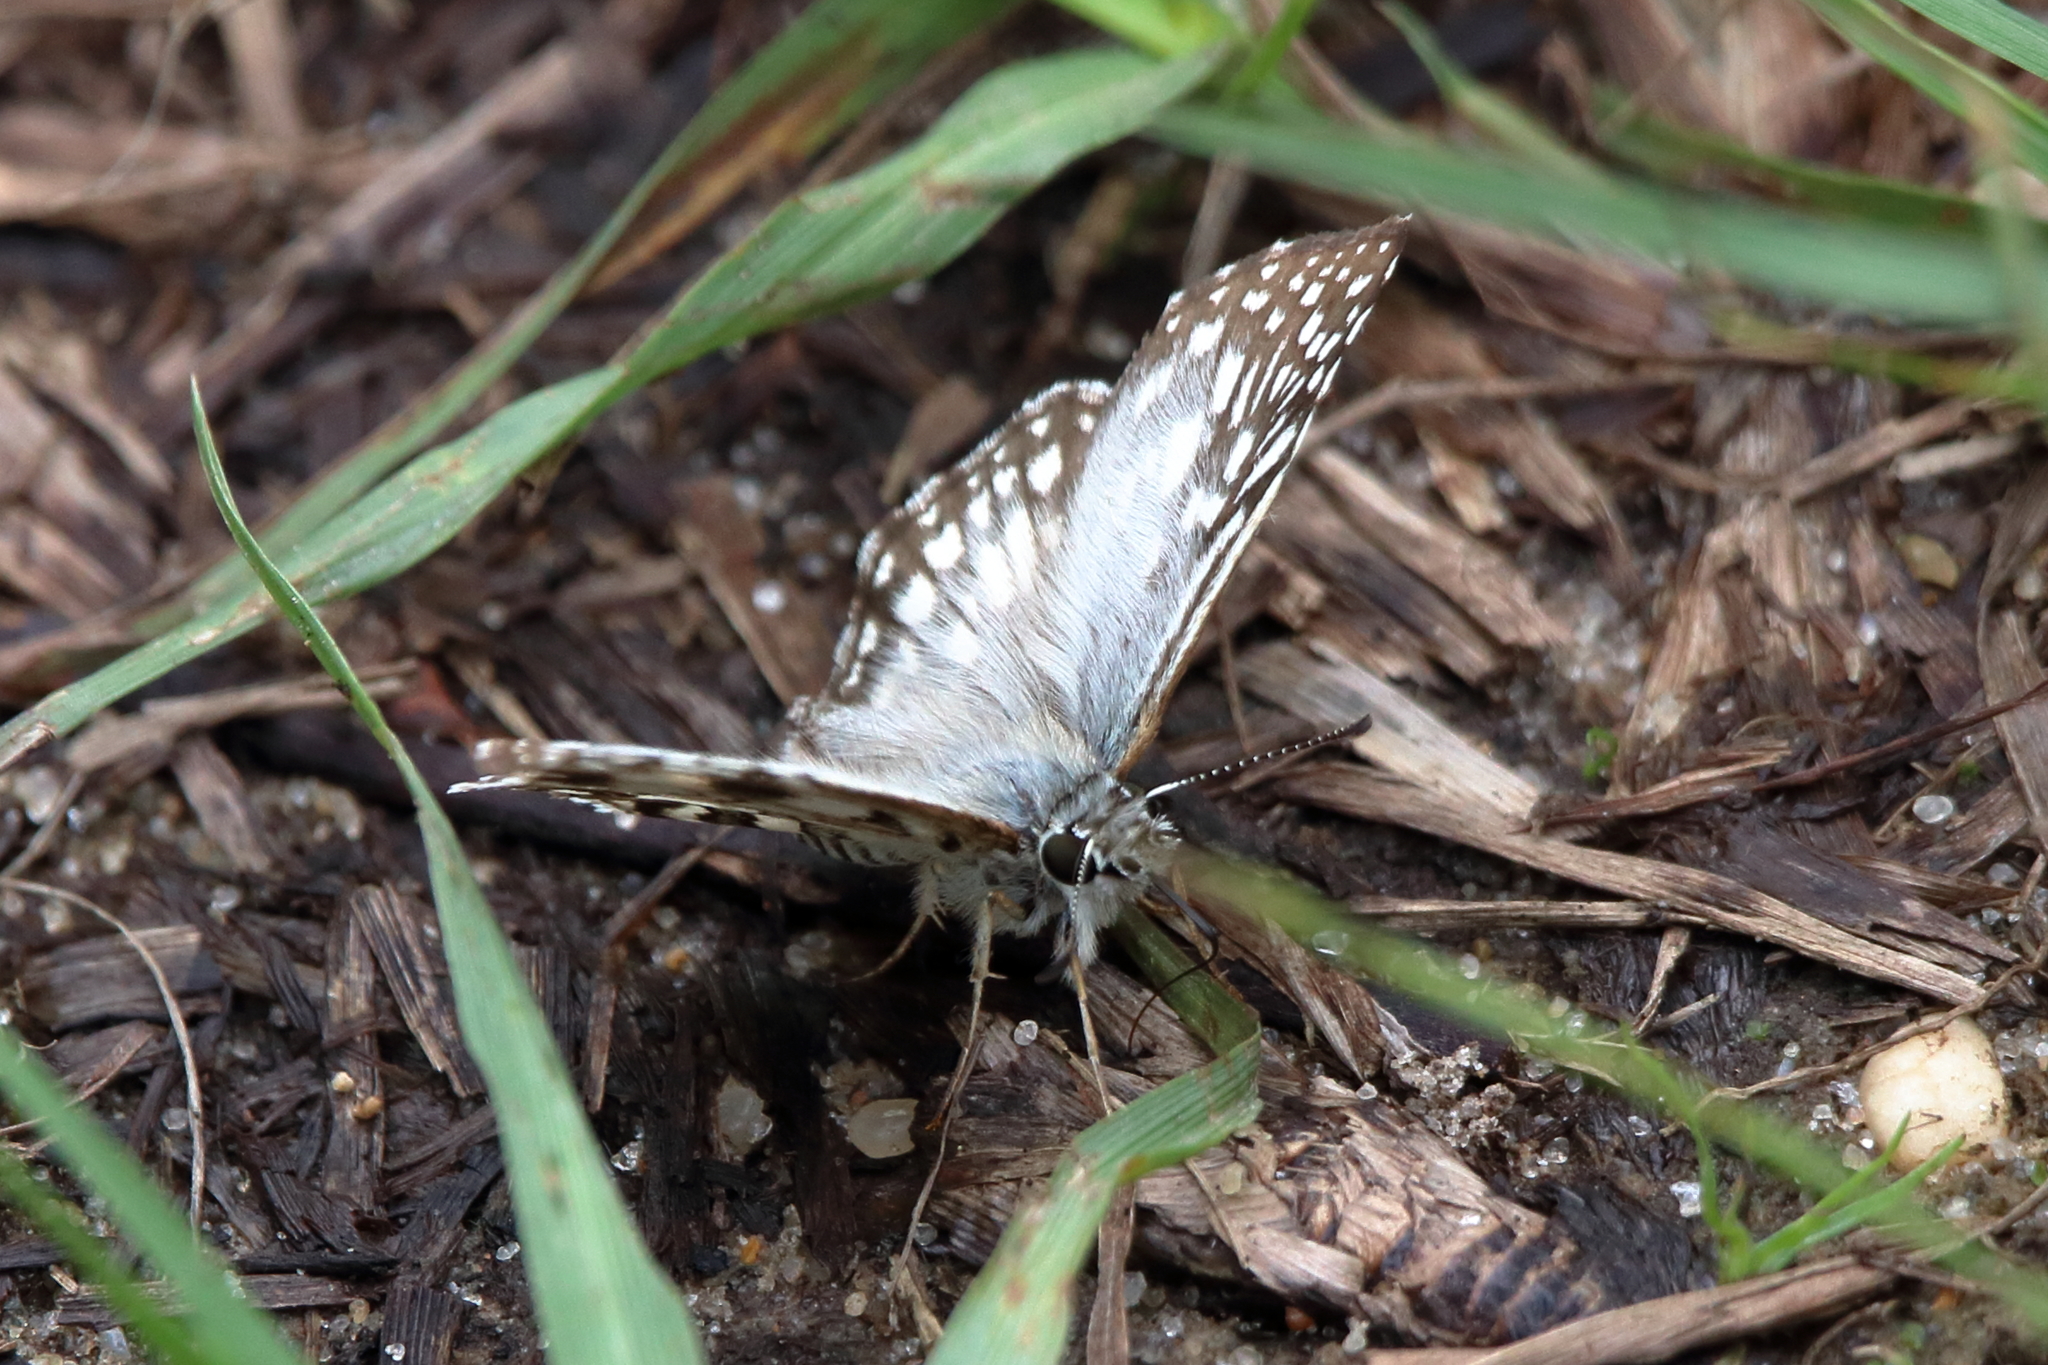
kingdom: Animalia
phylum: Arthropoda
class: Insecta
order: Lepidoptera
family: Hesperiidae
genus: Pyrgus
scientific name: Pyrgus oileus
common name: Tropical checkered-skipper
